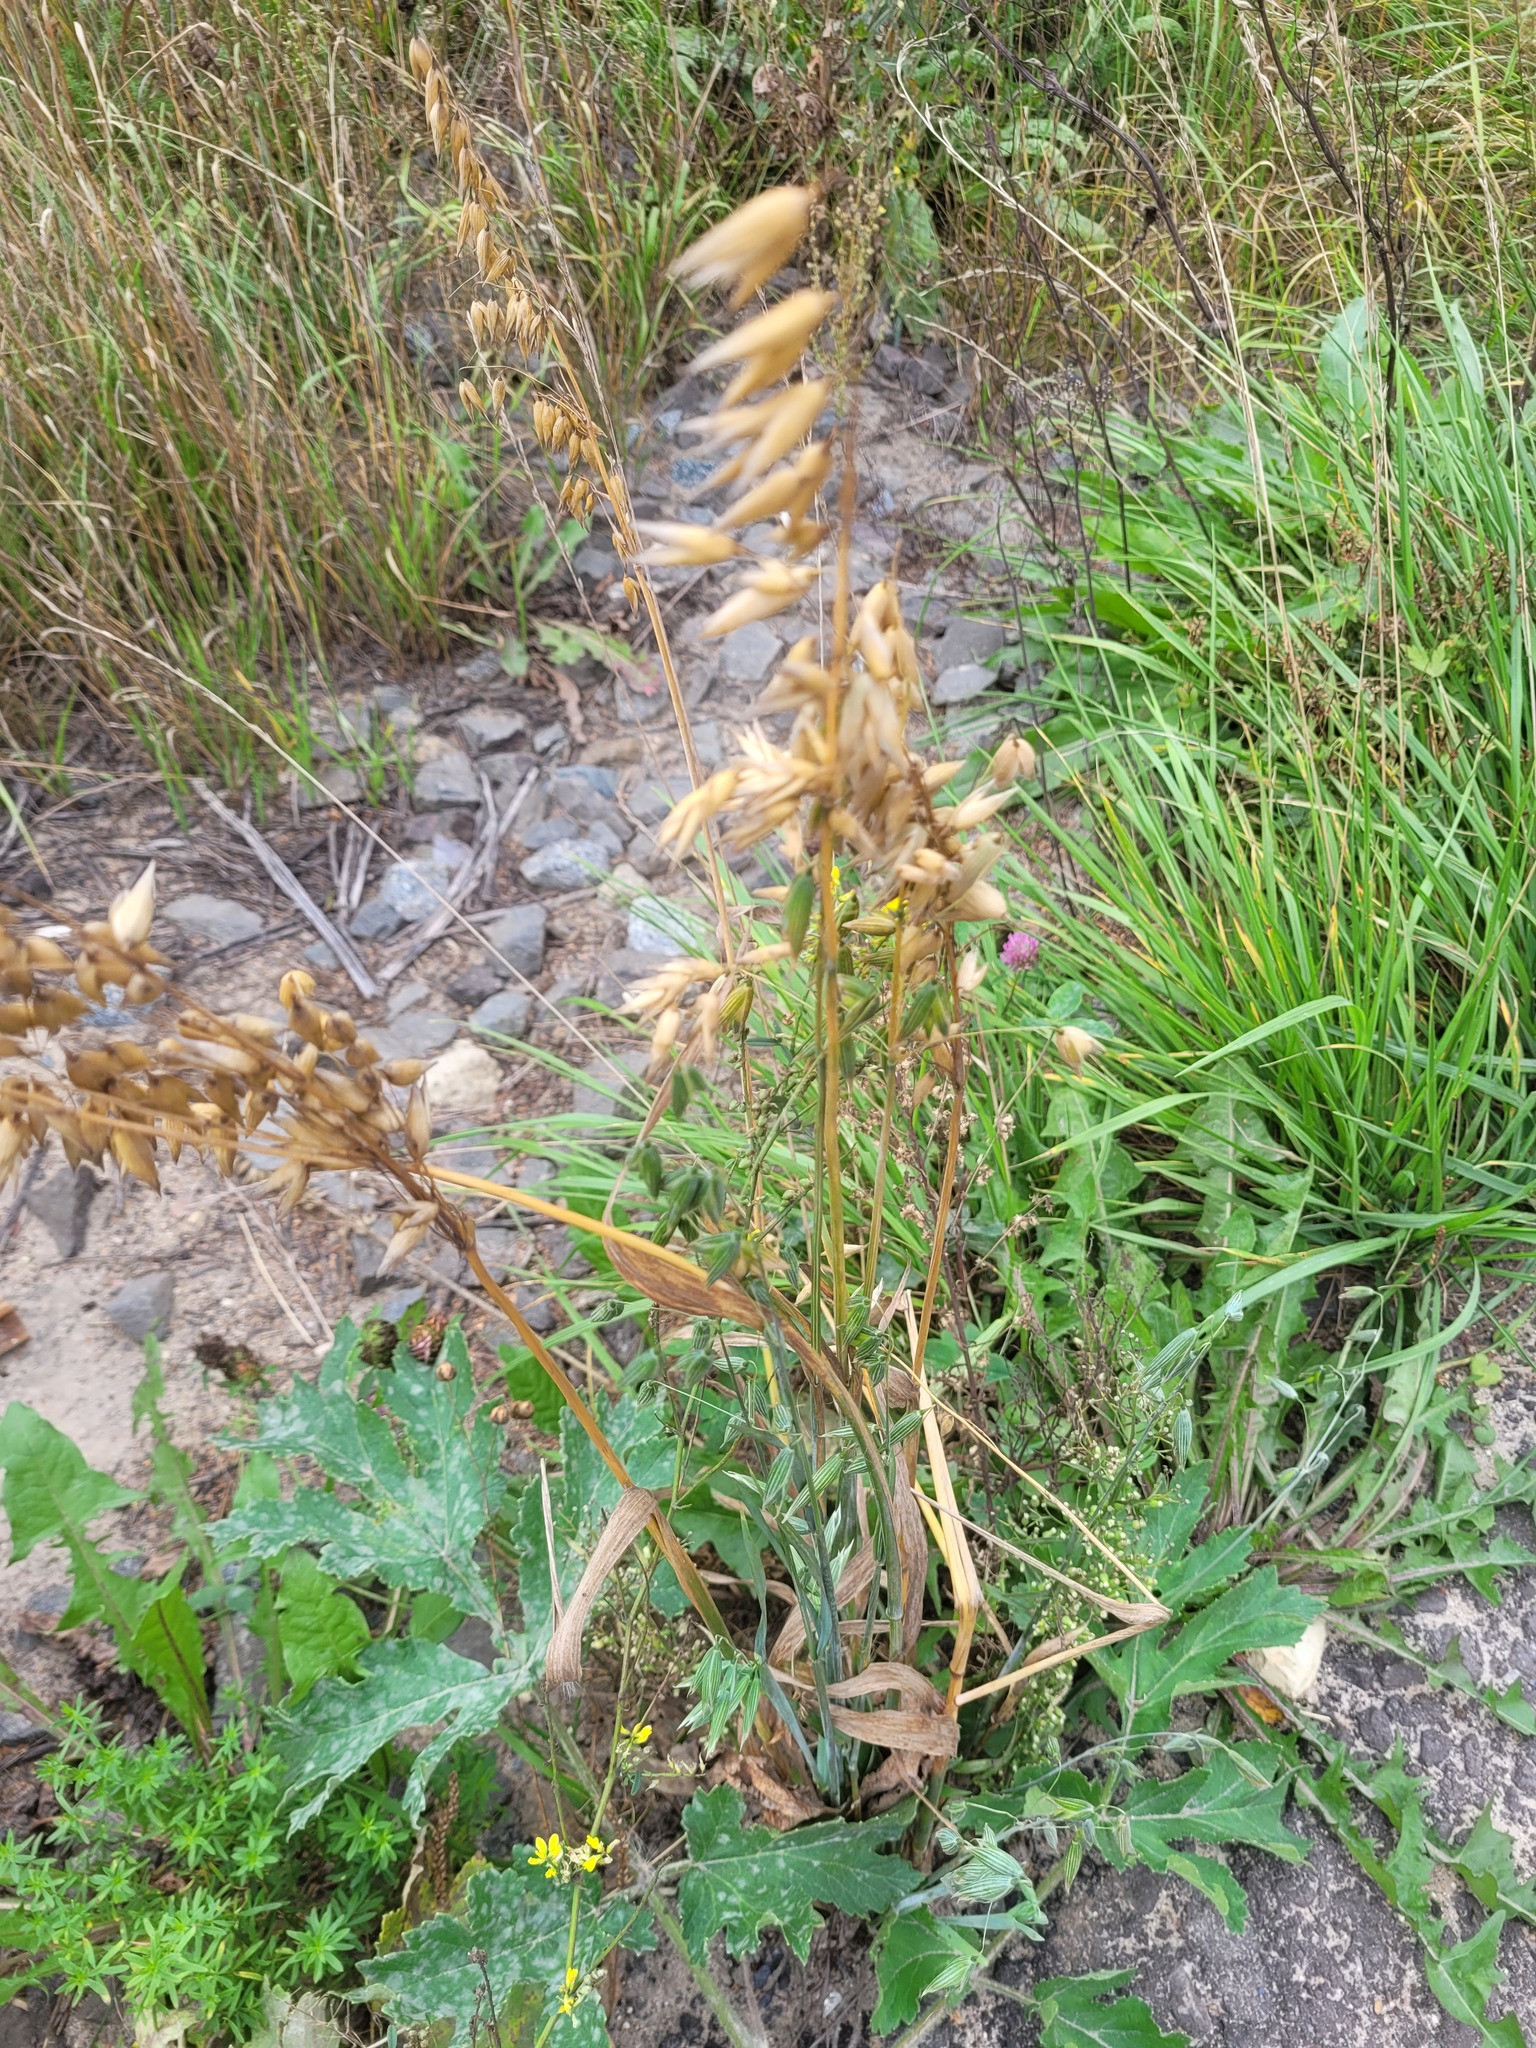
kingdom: Plantae
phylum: Tracheophyta
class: Liliopsida
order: Poales
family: Poaceae
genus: Avena
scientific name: Avena sativa
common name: Oat
